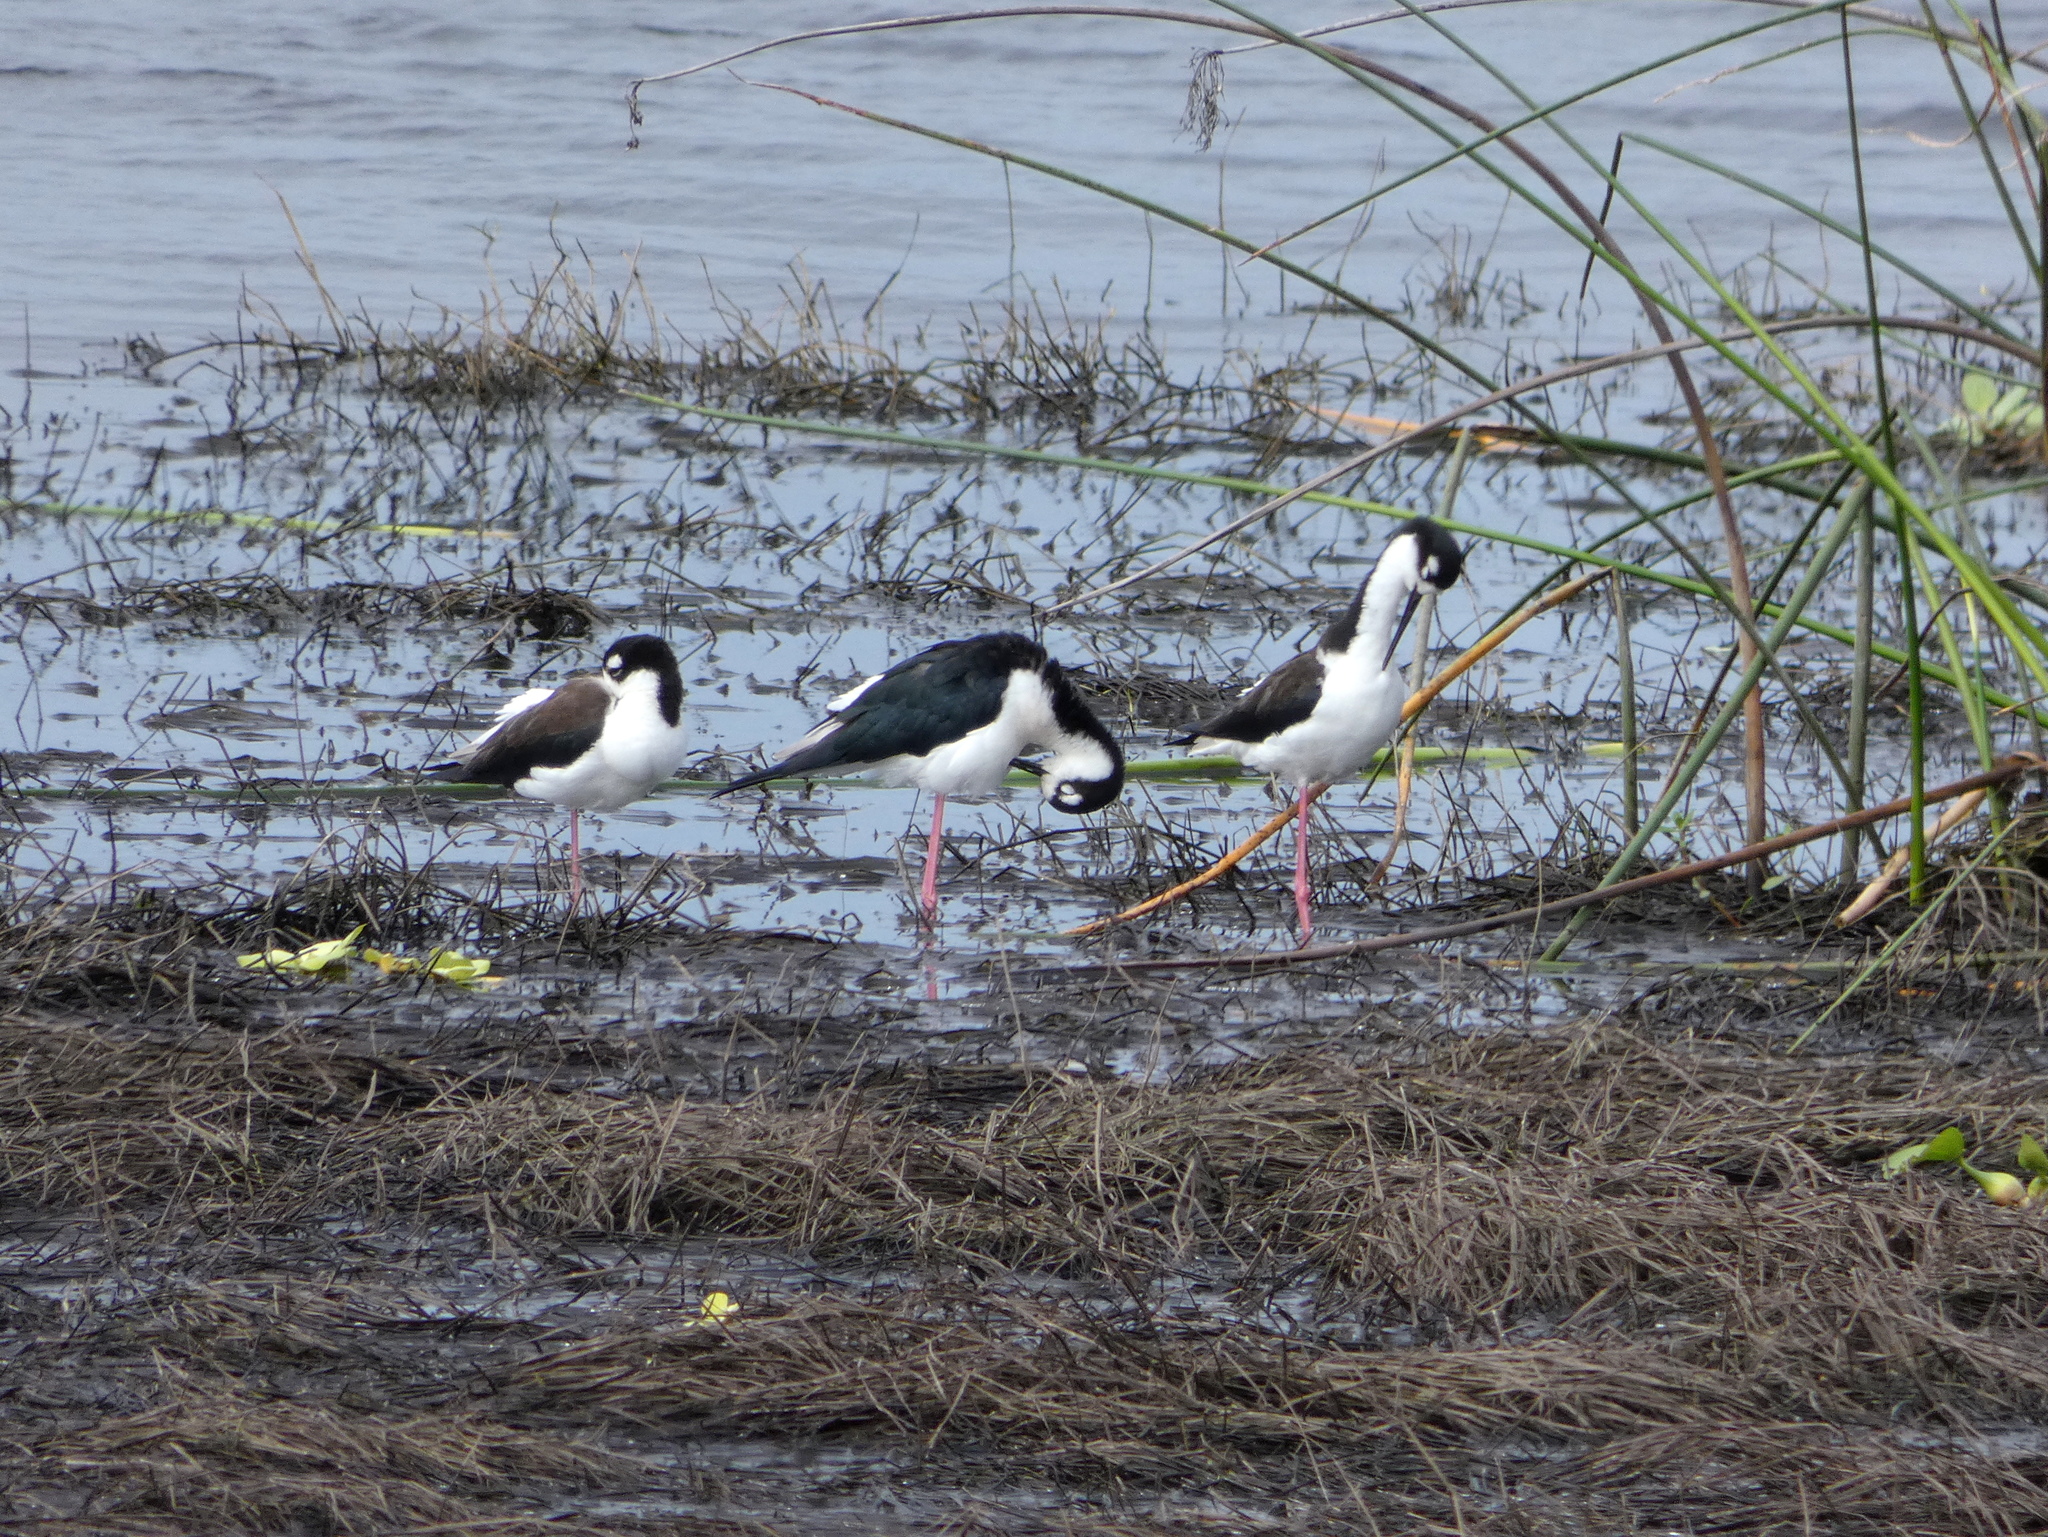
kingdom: Animalia
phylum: Chordata
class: Aves
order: Charadriiformes
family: Recurvirostridae
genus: Himantopus
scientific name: Himantopus mexicanus
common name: Black-necked stilt
